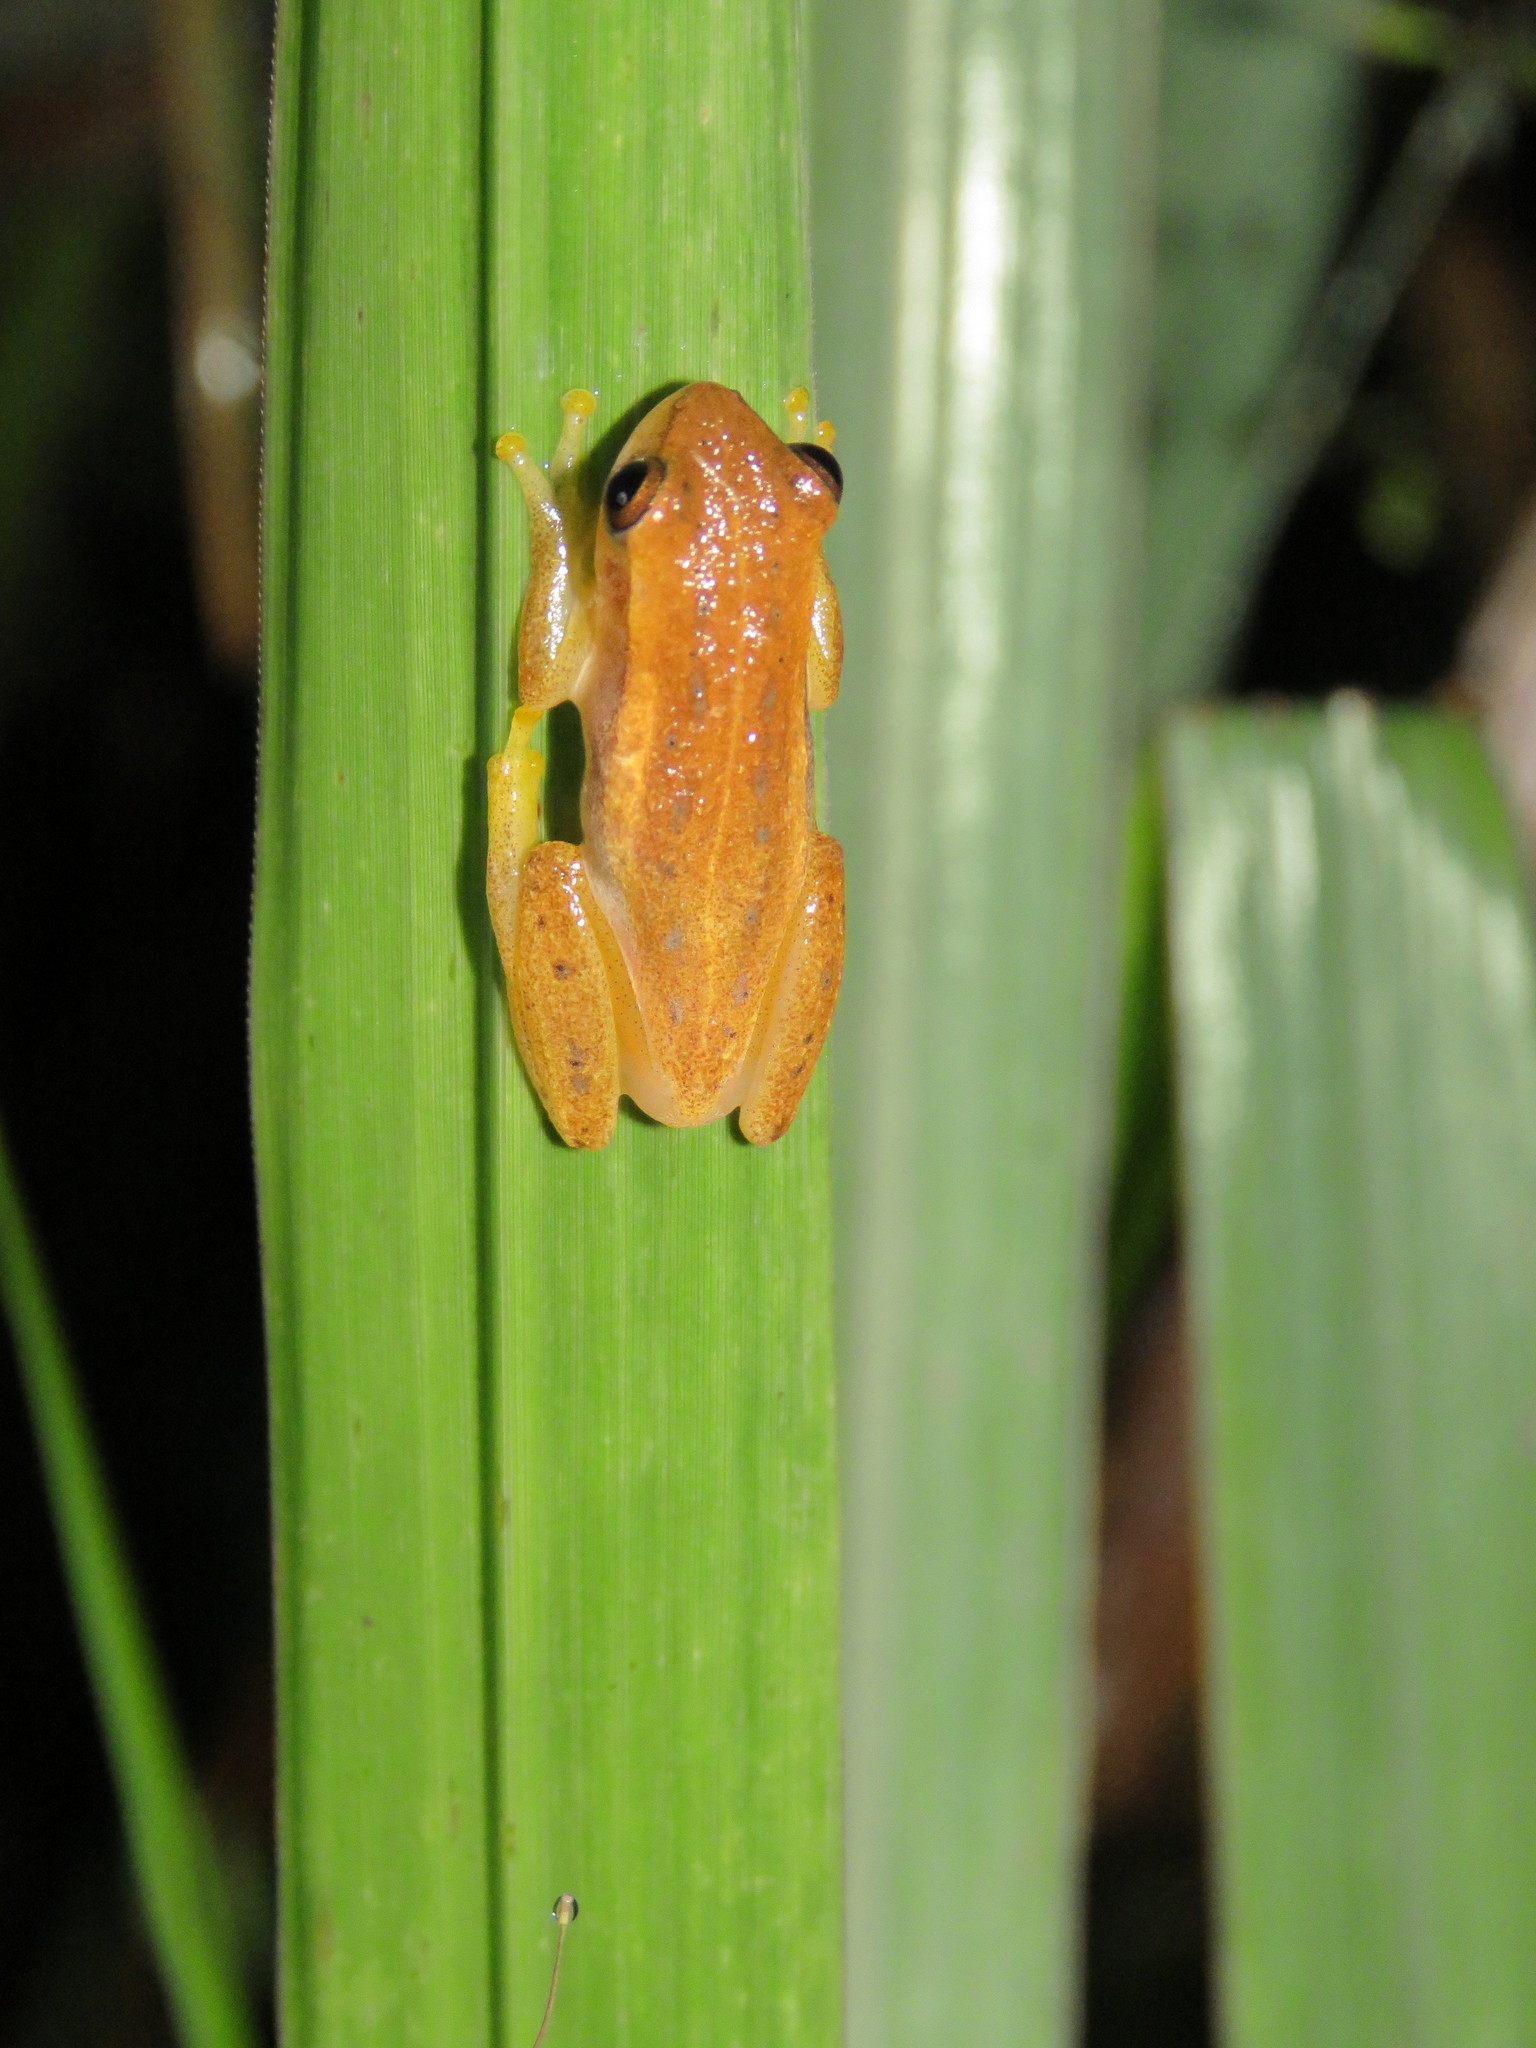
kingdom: Animalia
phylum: Chordata
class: Amphibia
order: Anura
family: Hylidae
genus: Dendropsophus
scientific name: Dendropsophus nanus
